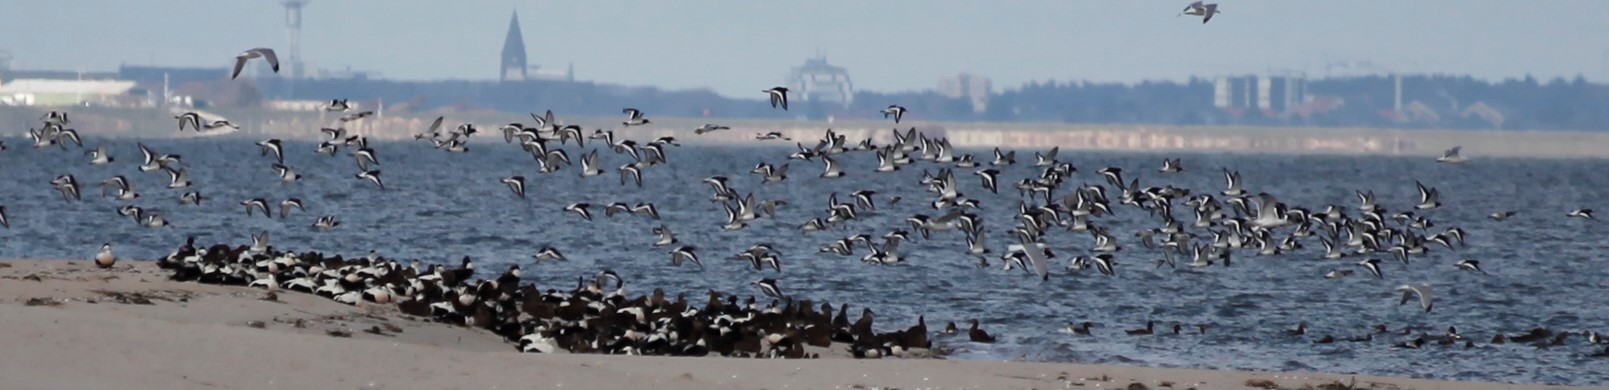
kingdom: Animalia
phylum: Chordata
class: Aves
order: Charadriiformes
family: Haematopodidae
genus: Haematopus
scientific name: Haematopus ostralegus
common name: Eurasian oystercatcher
